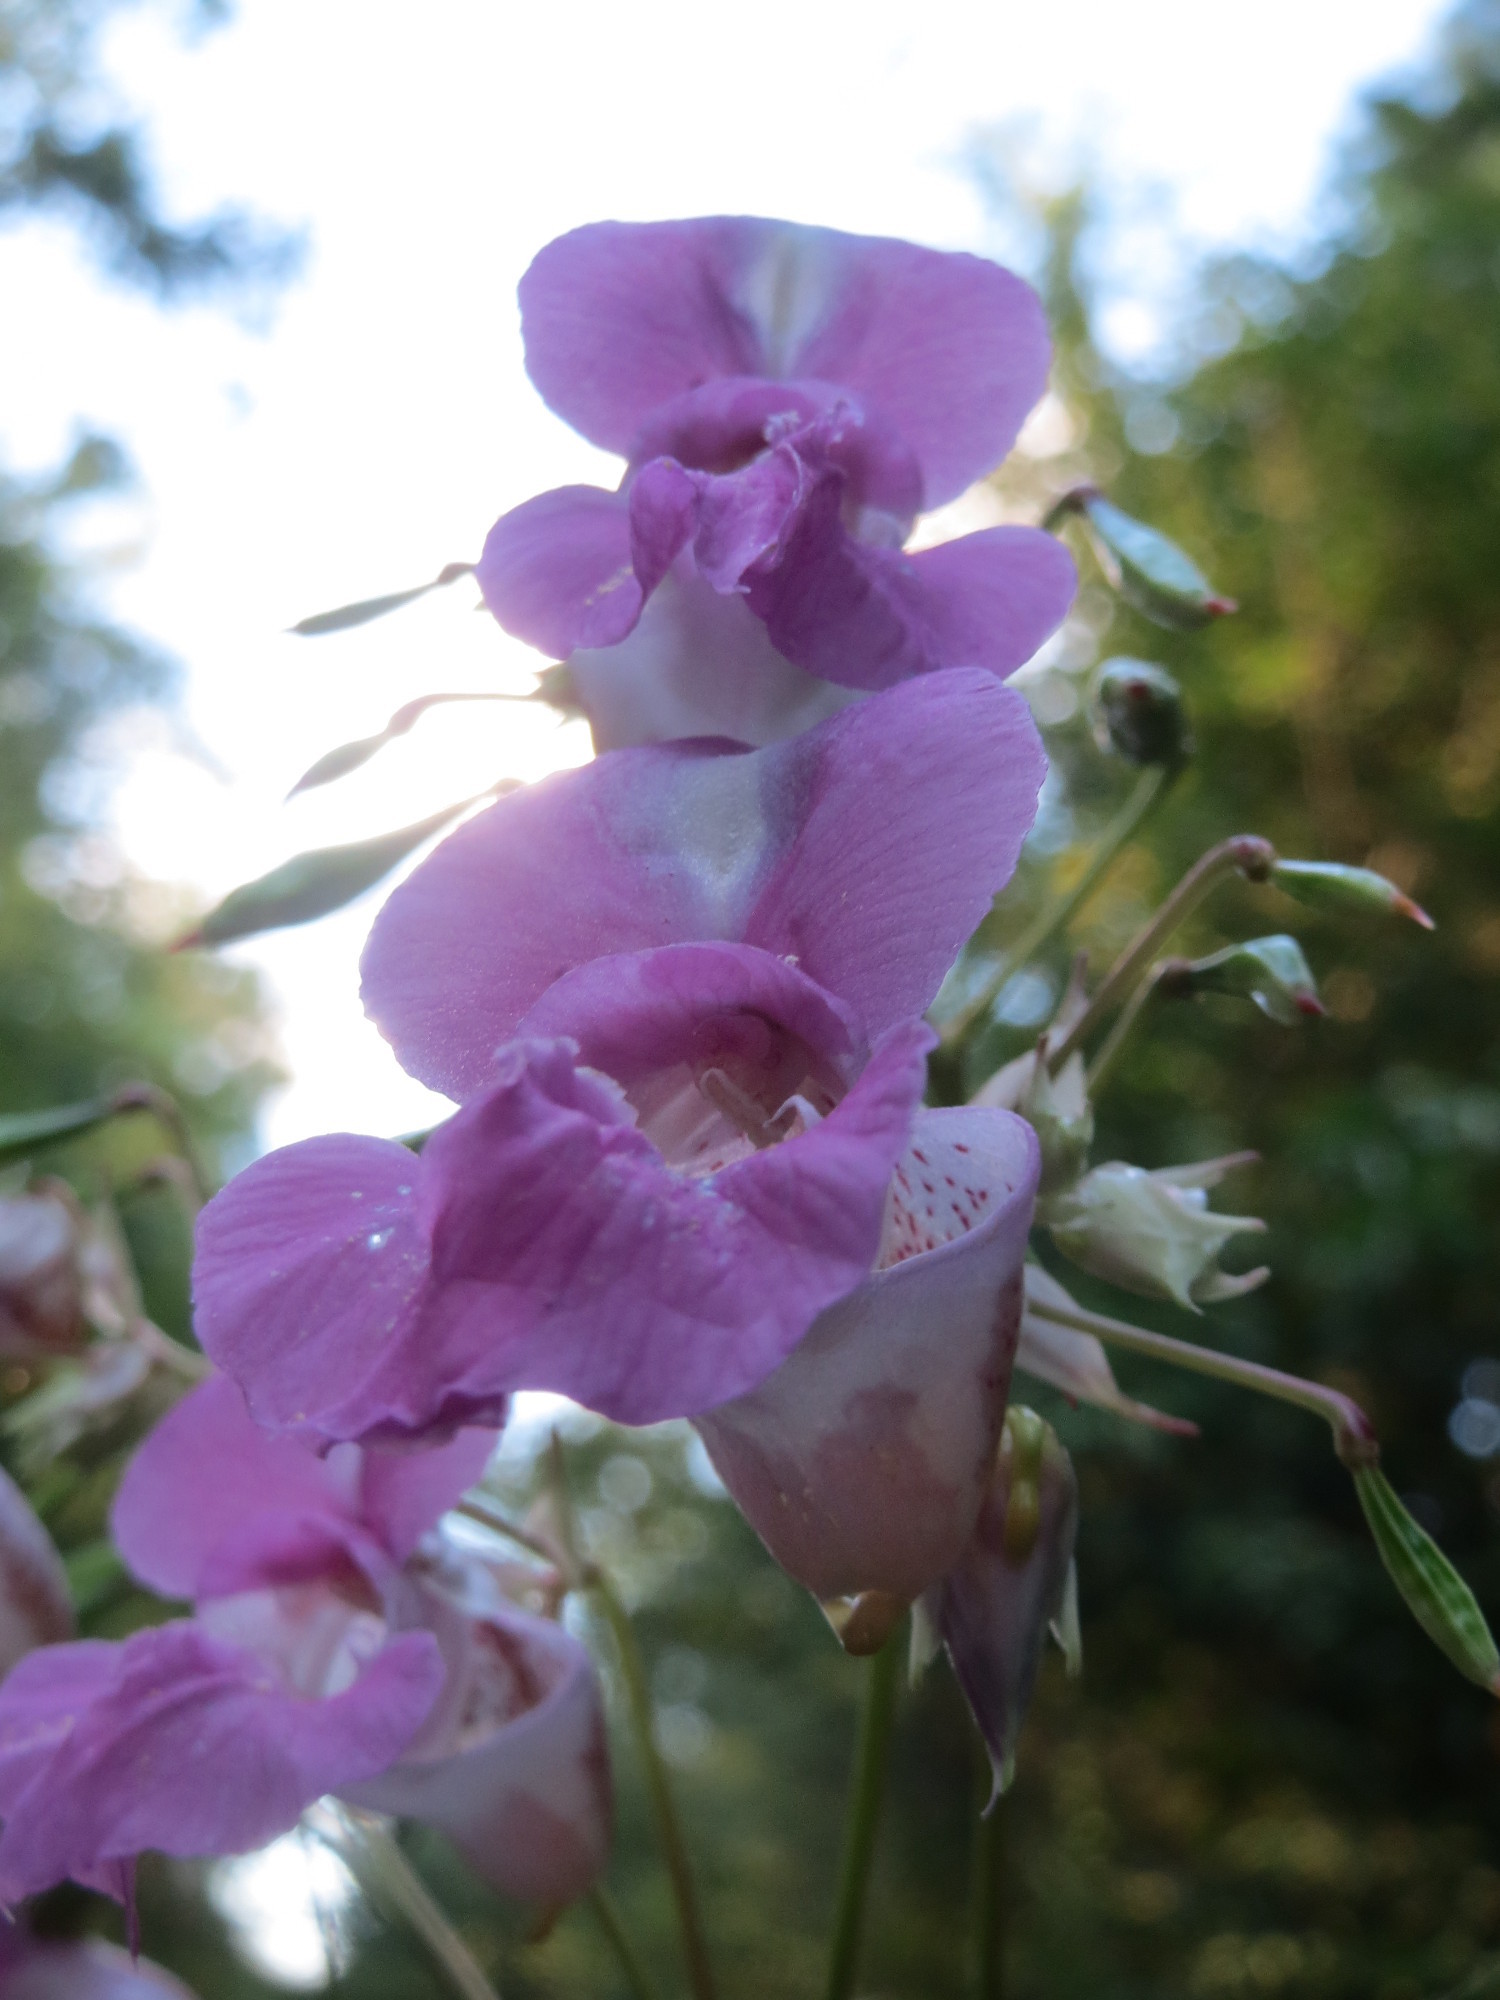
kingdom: Plantae
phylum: Tracheophyta
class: Magnoliopsida
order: Ericales
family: Balsaminaceae
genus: Impatiens
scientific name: Impatiens glandulifera
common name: Himalayan balsam
